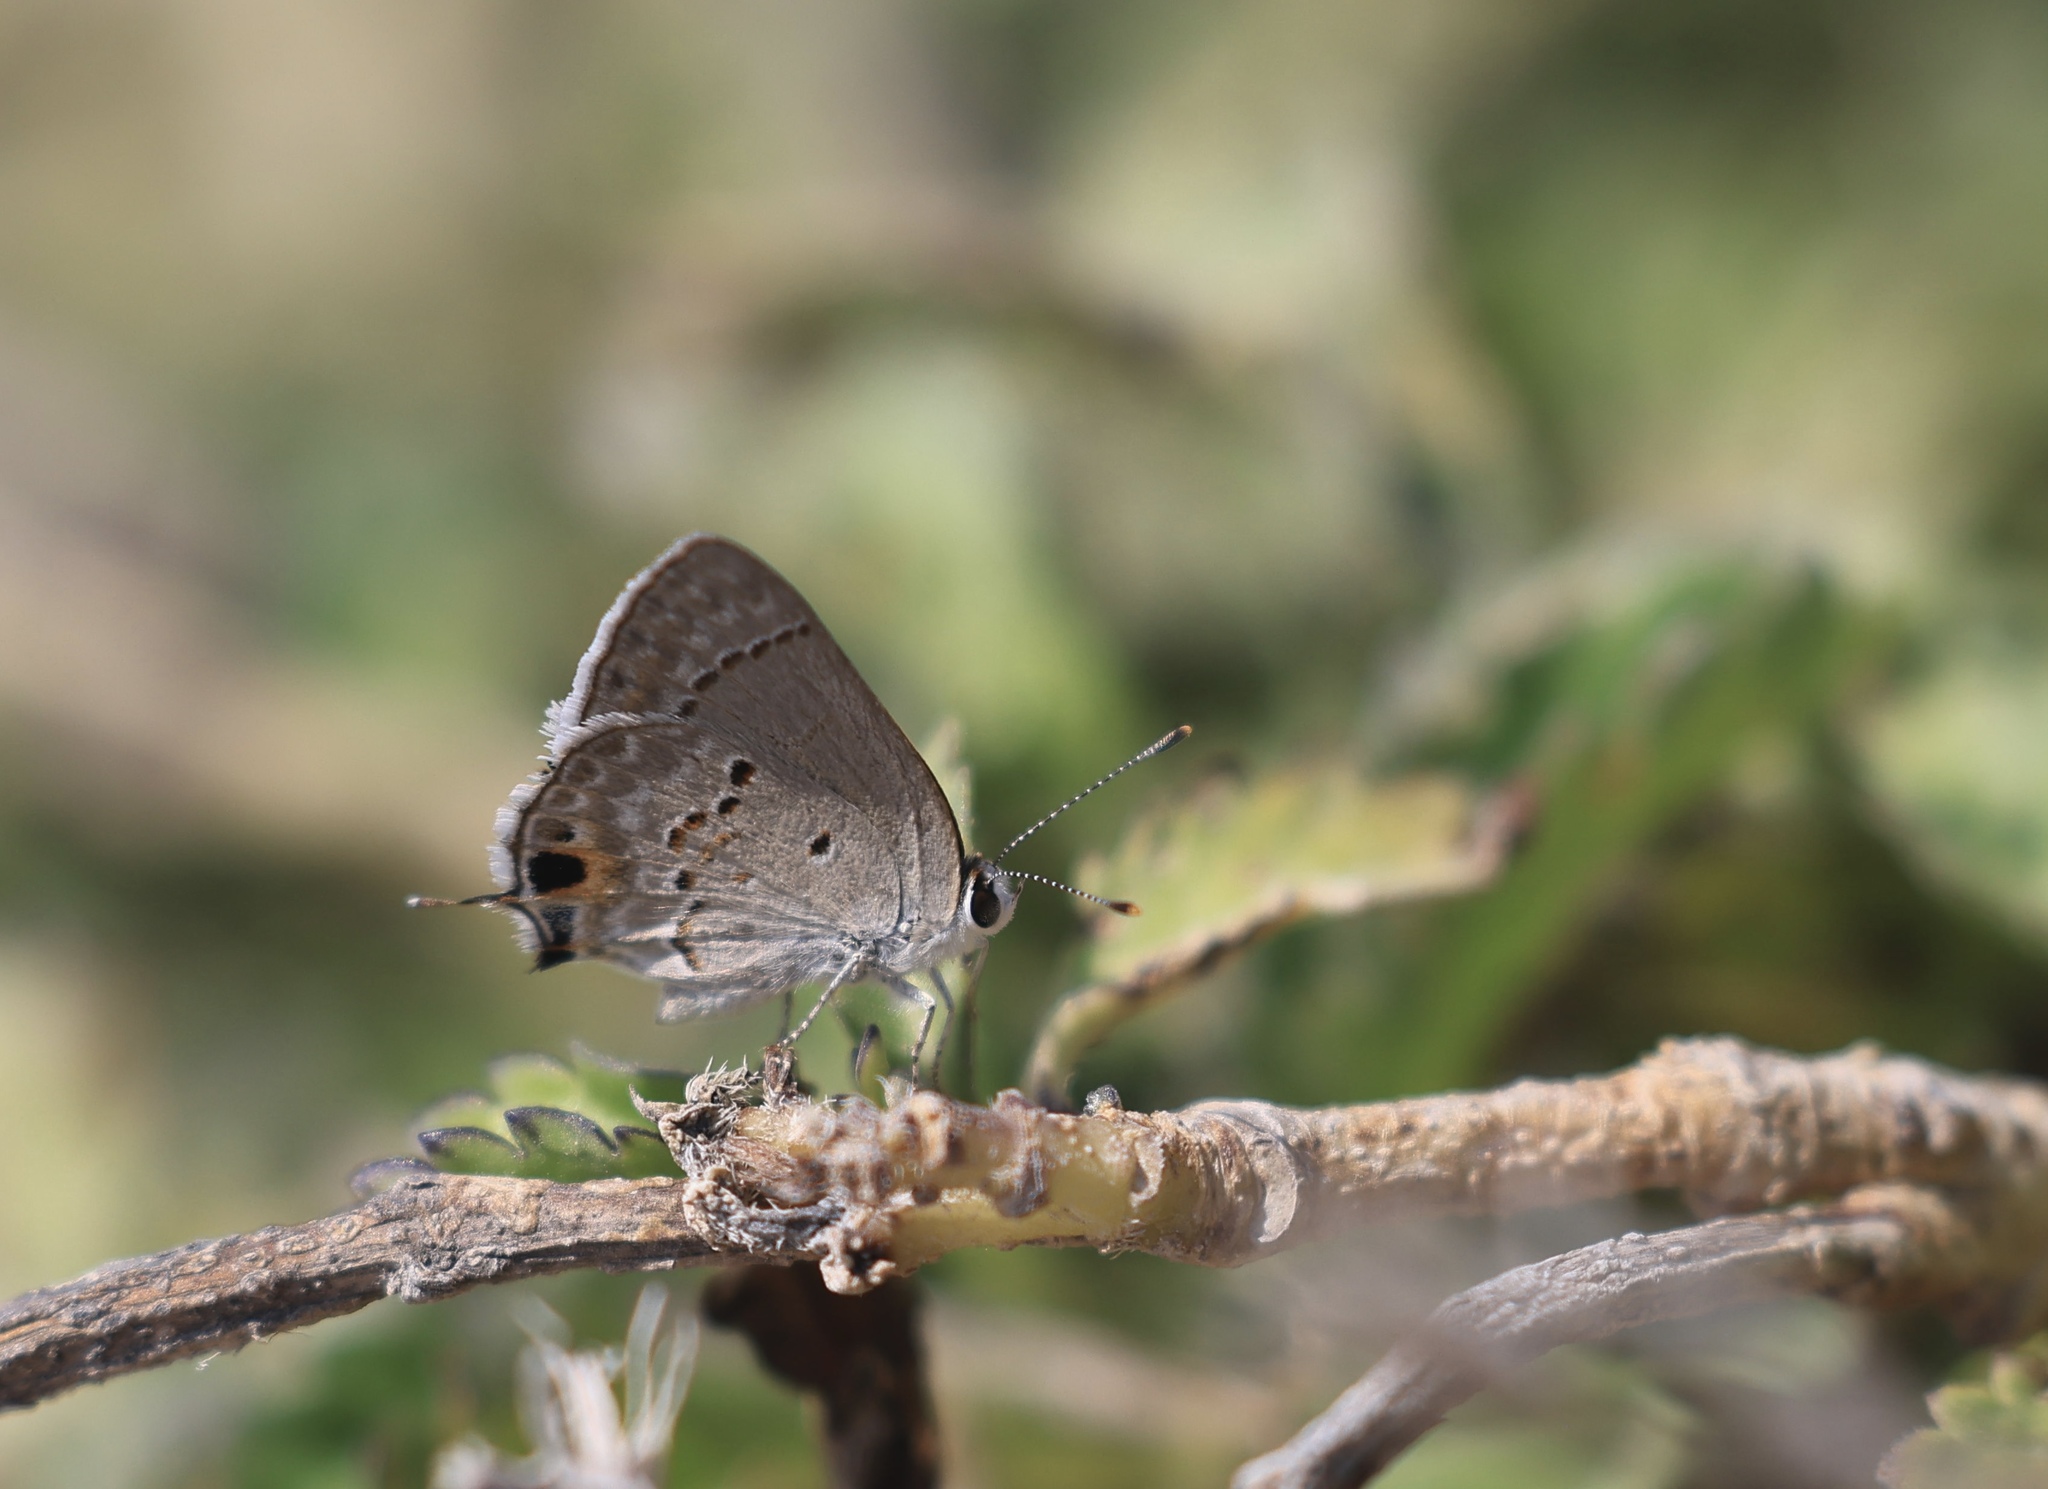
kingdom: Animalia
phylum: Arthropoda
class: Insecta
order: Lepidoptera
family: Lycaenidae
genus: Callicista
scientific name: Callicista columella
